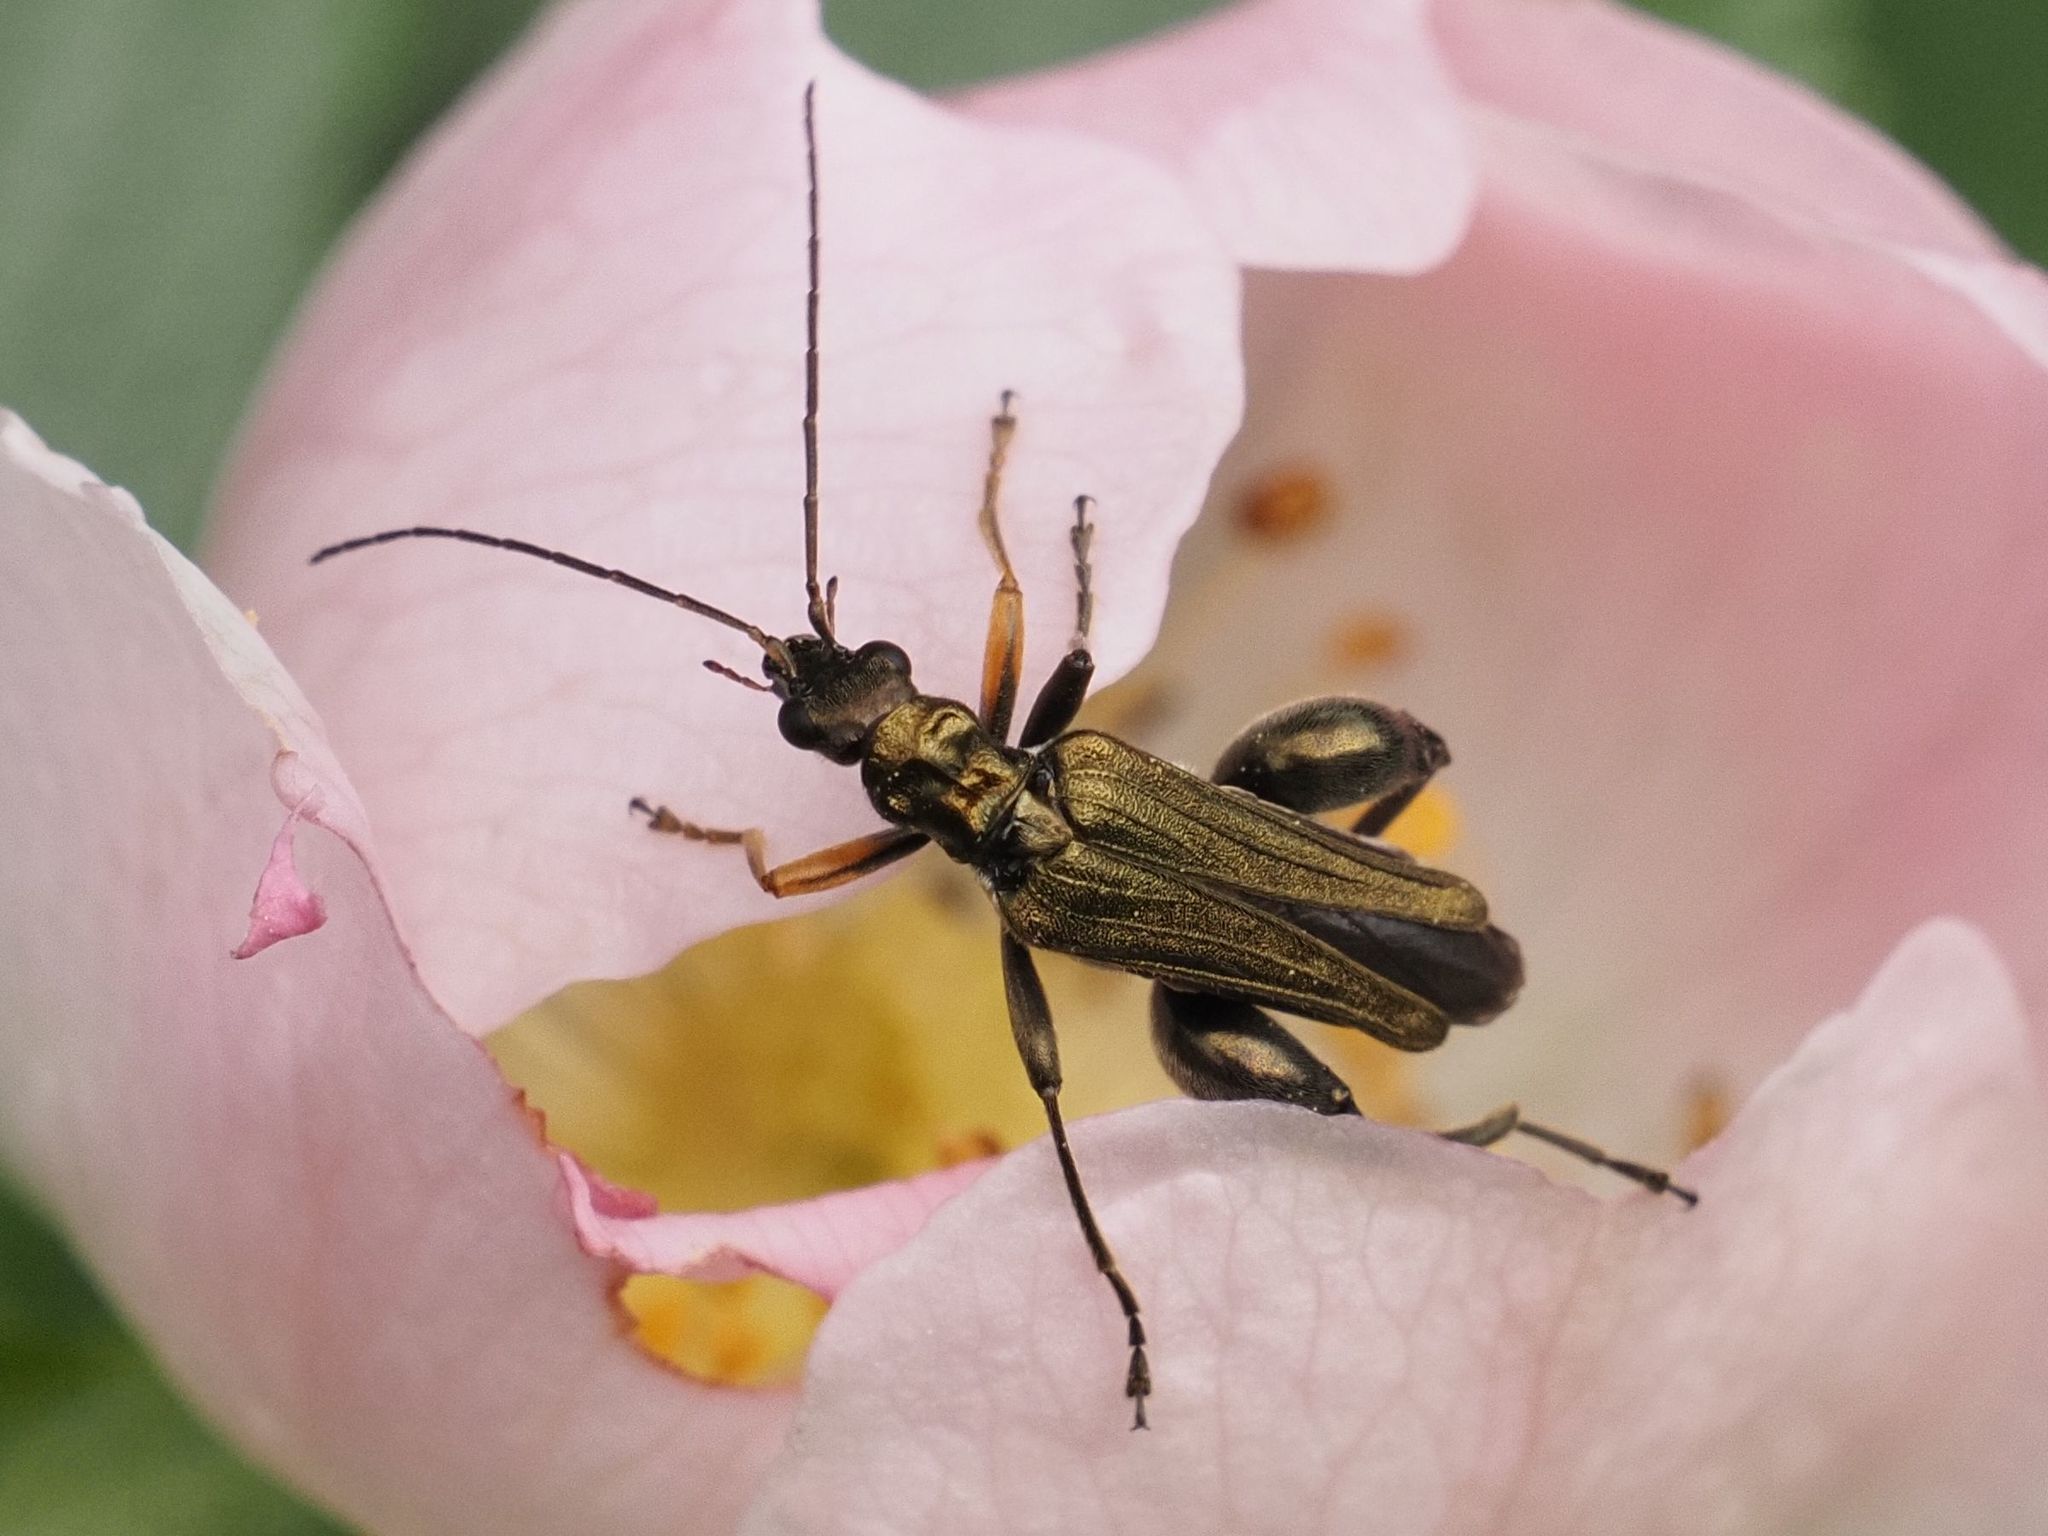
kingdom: Animalia
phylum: Arthropoda
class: Insecta
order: Coleoptera
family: Oedemeridae
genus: Oedemera
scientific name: Oedemera flavipes
